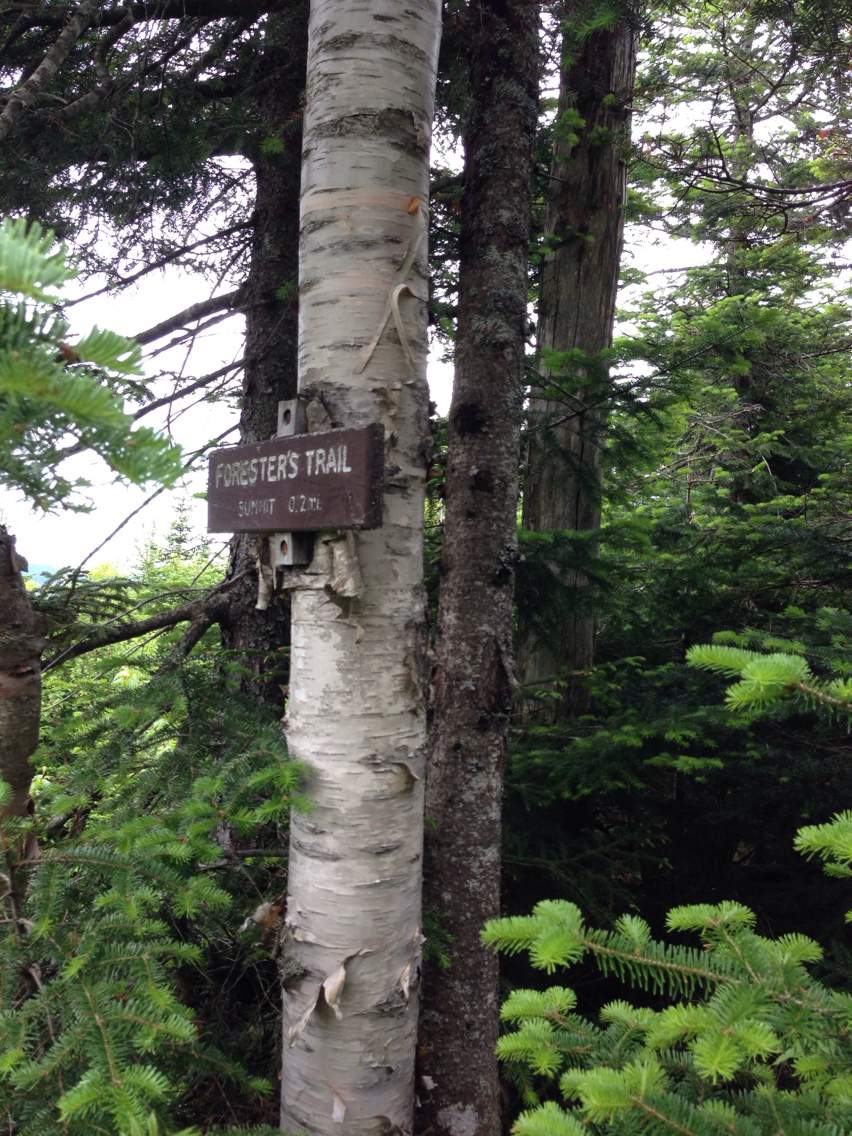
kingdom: Plantae
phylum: Tracheophyta
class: Magnoliopsida
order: Fagales
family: Betulaceae
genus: Betula
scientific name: Betula cordifolia
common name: Mountain white birch
